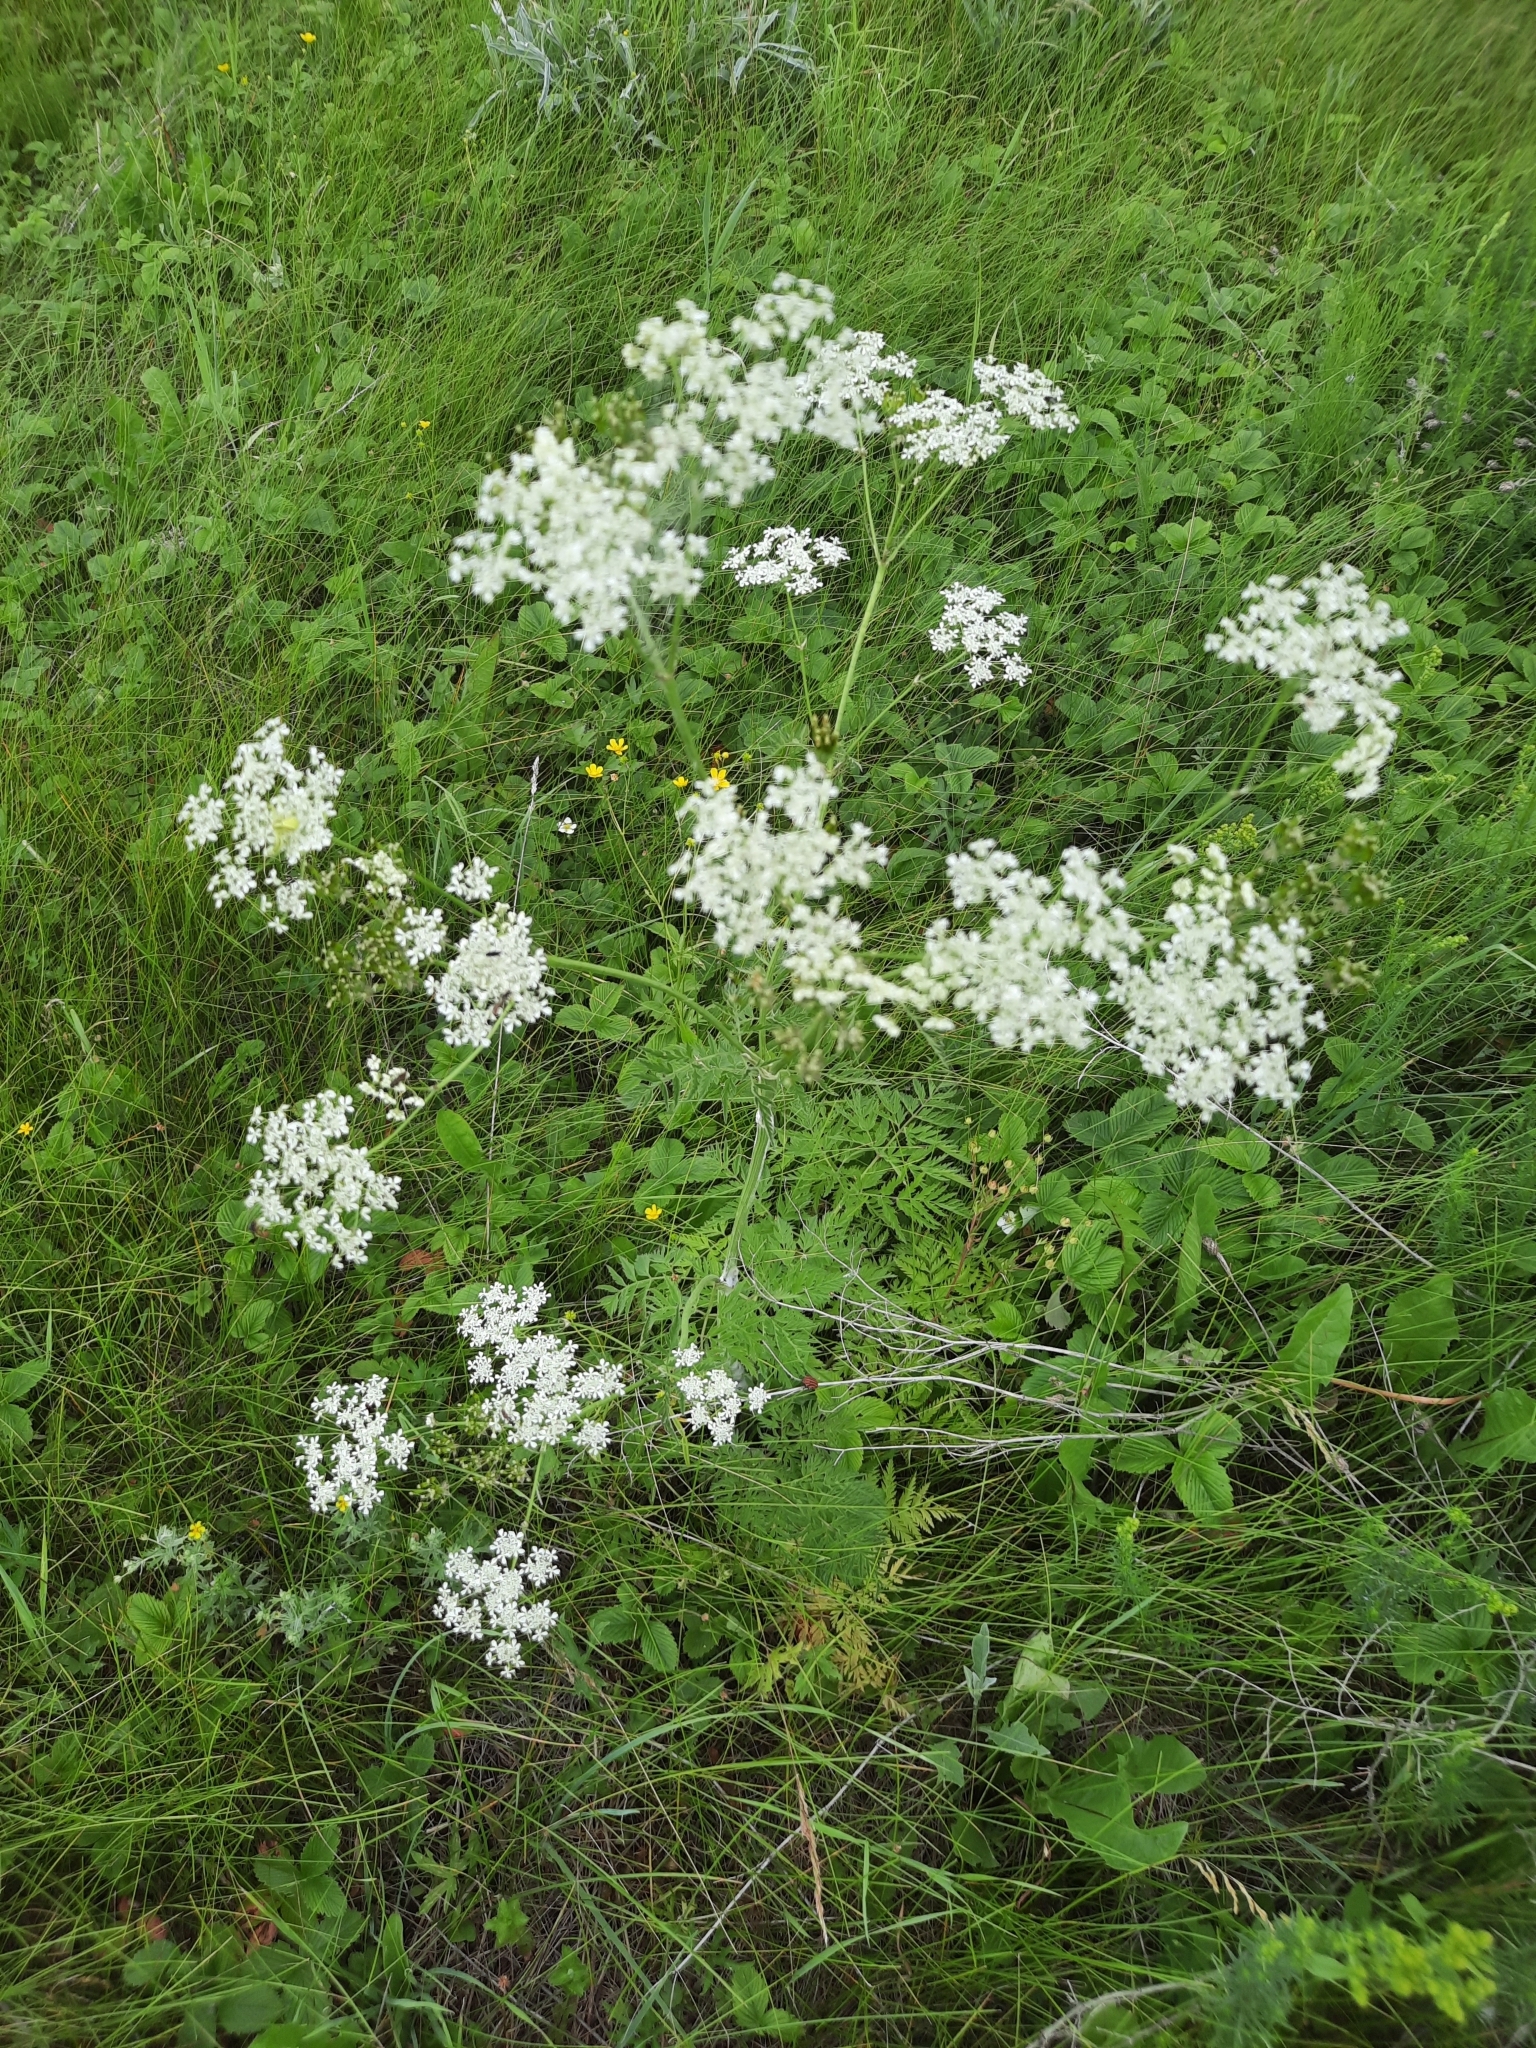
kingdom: Plantae
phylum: Tracheophyta
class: Magnoliopsida
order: Apiales
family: Apiaceae
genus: Anthriscus
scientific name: Anthriscus sylvestris
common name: Cow parsley
